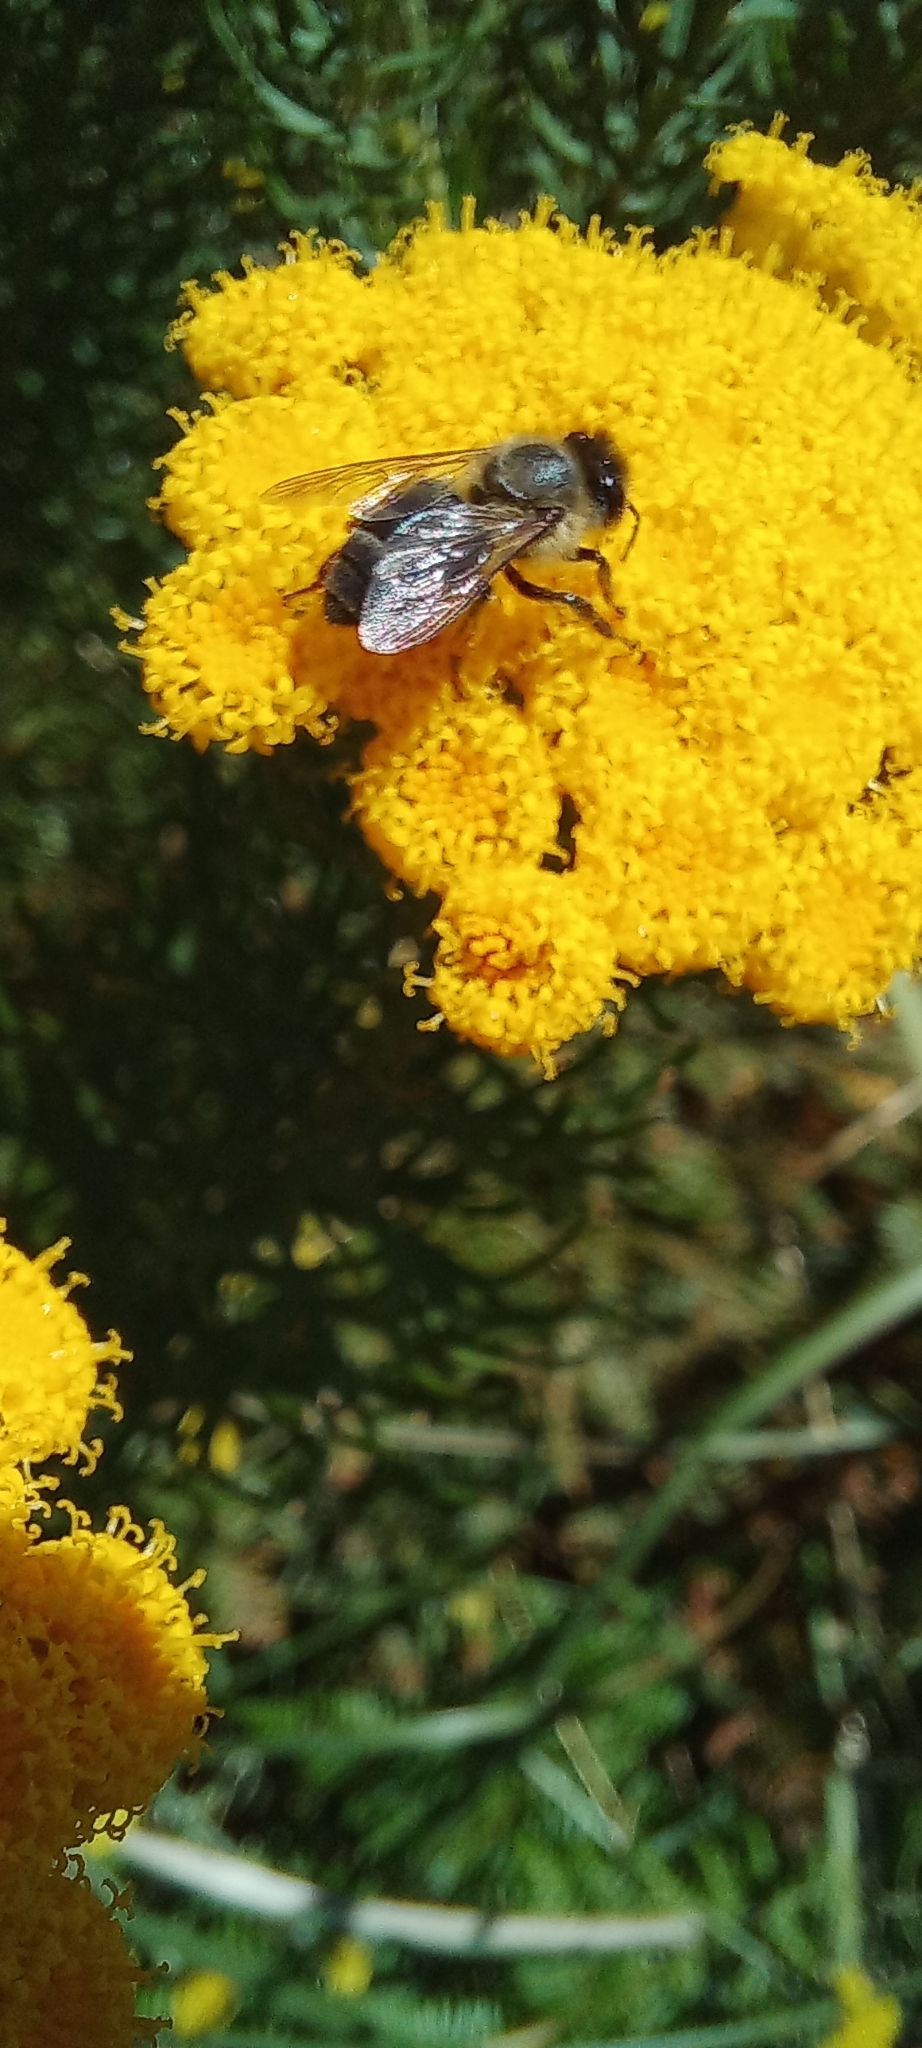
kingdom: Animalia
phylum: Arthropoda
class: Insecta
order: Hymenoptera
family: Apidae
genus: Apis
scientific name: Apis mellifera
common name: Honey bee
